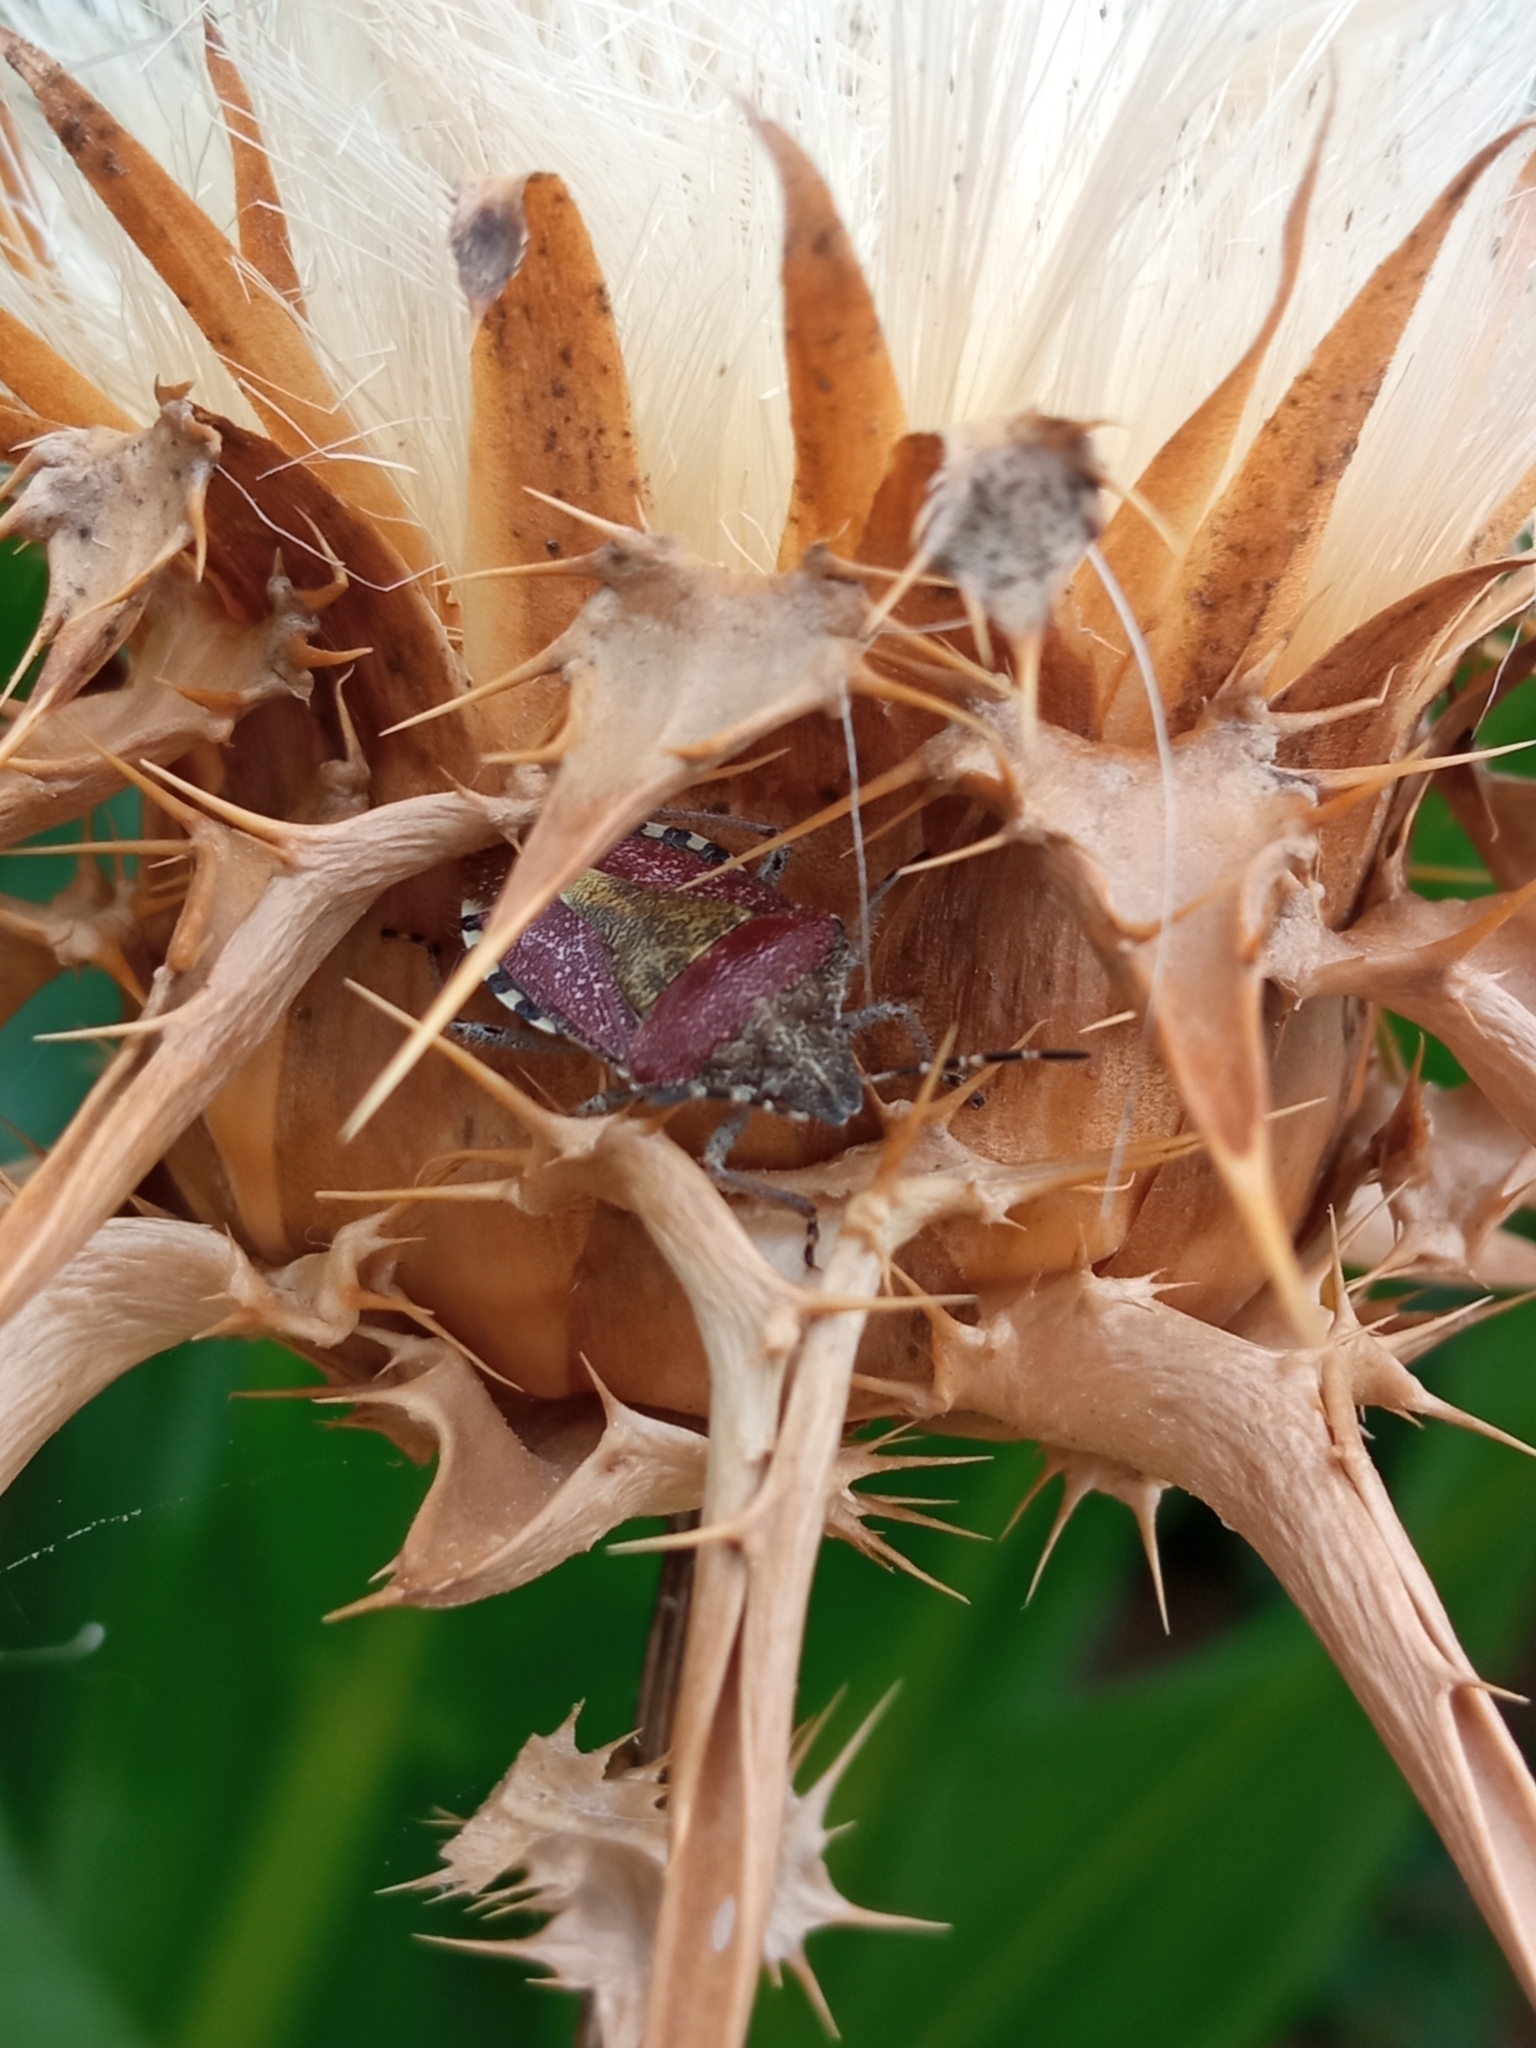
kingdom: Animalia
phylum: Arthropoda
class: Insecta
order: Hemiptera
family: Pentatomidae
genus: Dolycoris
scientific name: Dolycoris baccarum
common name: Sloe bug
